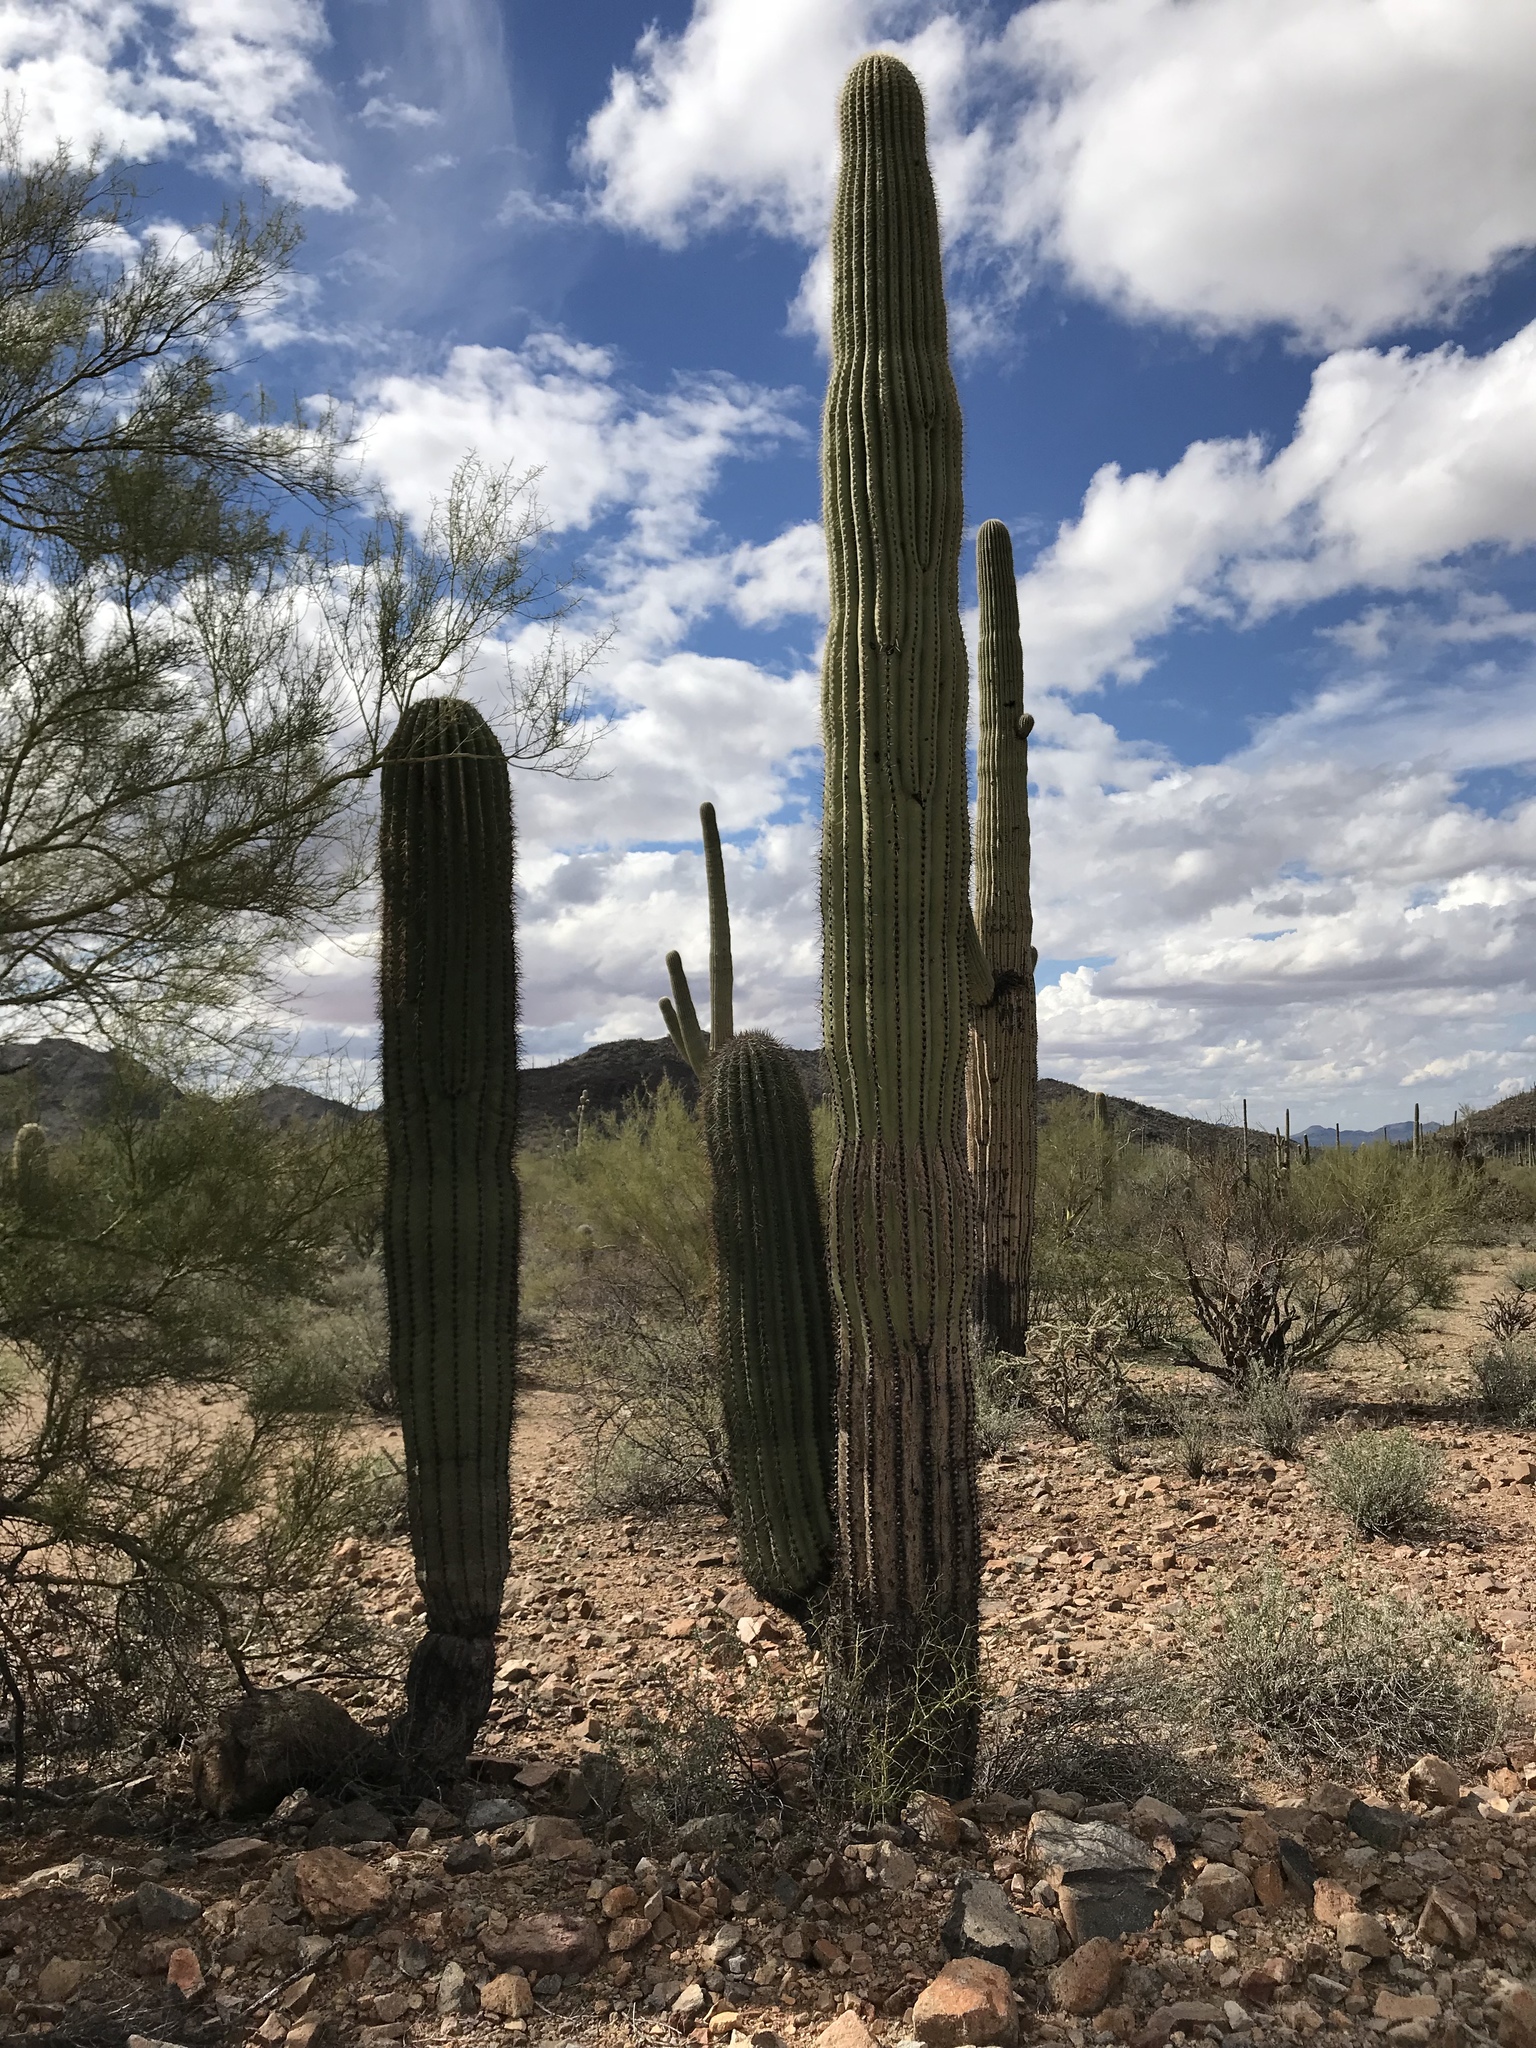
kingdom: Plantae
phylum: Tracheophyta
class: Magnoliopsida
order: Caryophyllales
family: Cactaceae
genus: Carnegiea
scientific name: Carnegiea gigantea
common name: Saguaro
